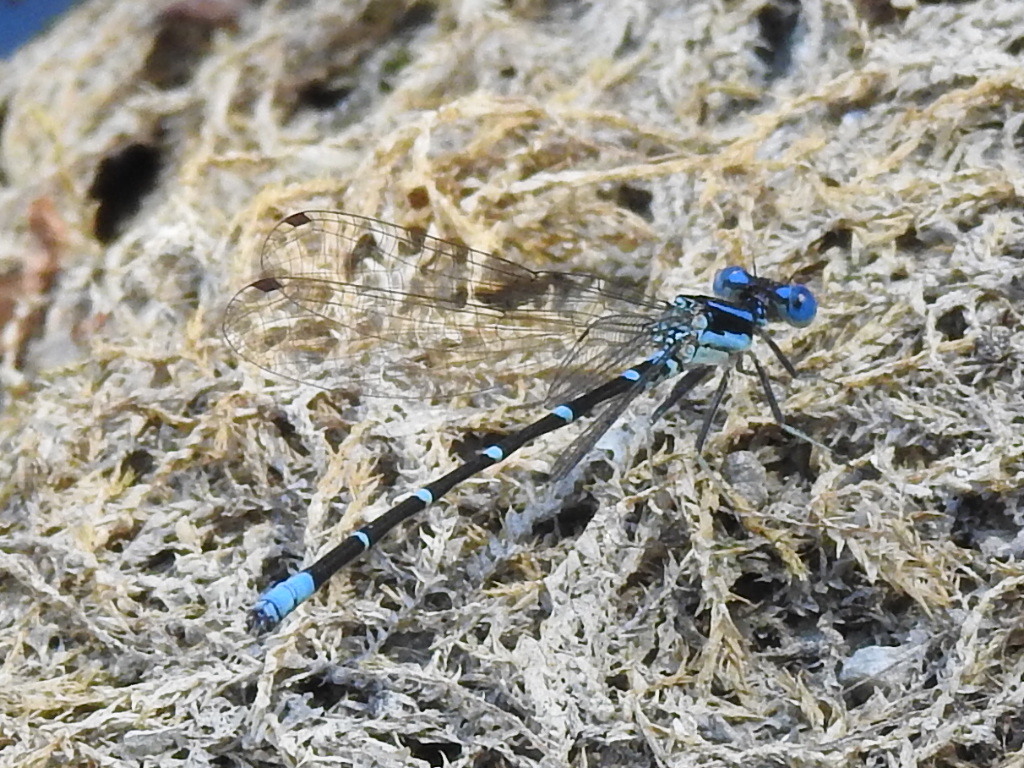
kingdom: Animalia
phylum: Arthropoda
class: Insecta
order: Odonata
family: Coenagrionidae
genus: Argia
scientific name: Argia sedula
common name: Blue-ringed dancer
